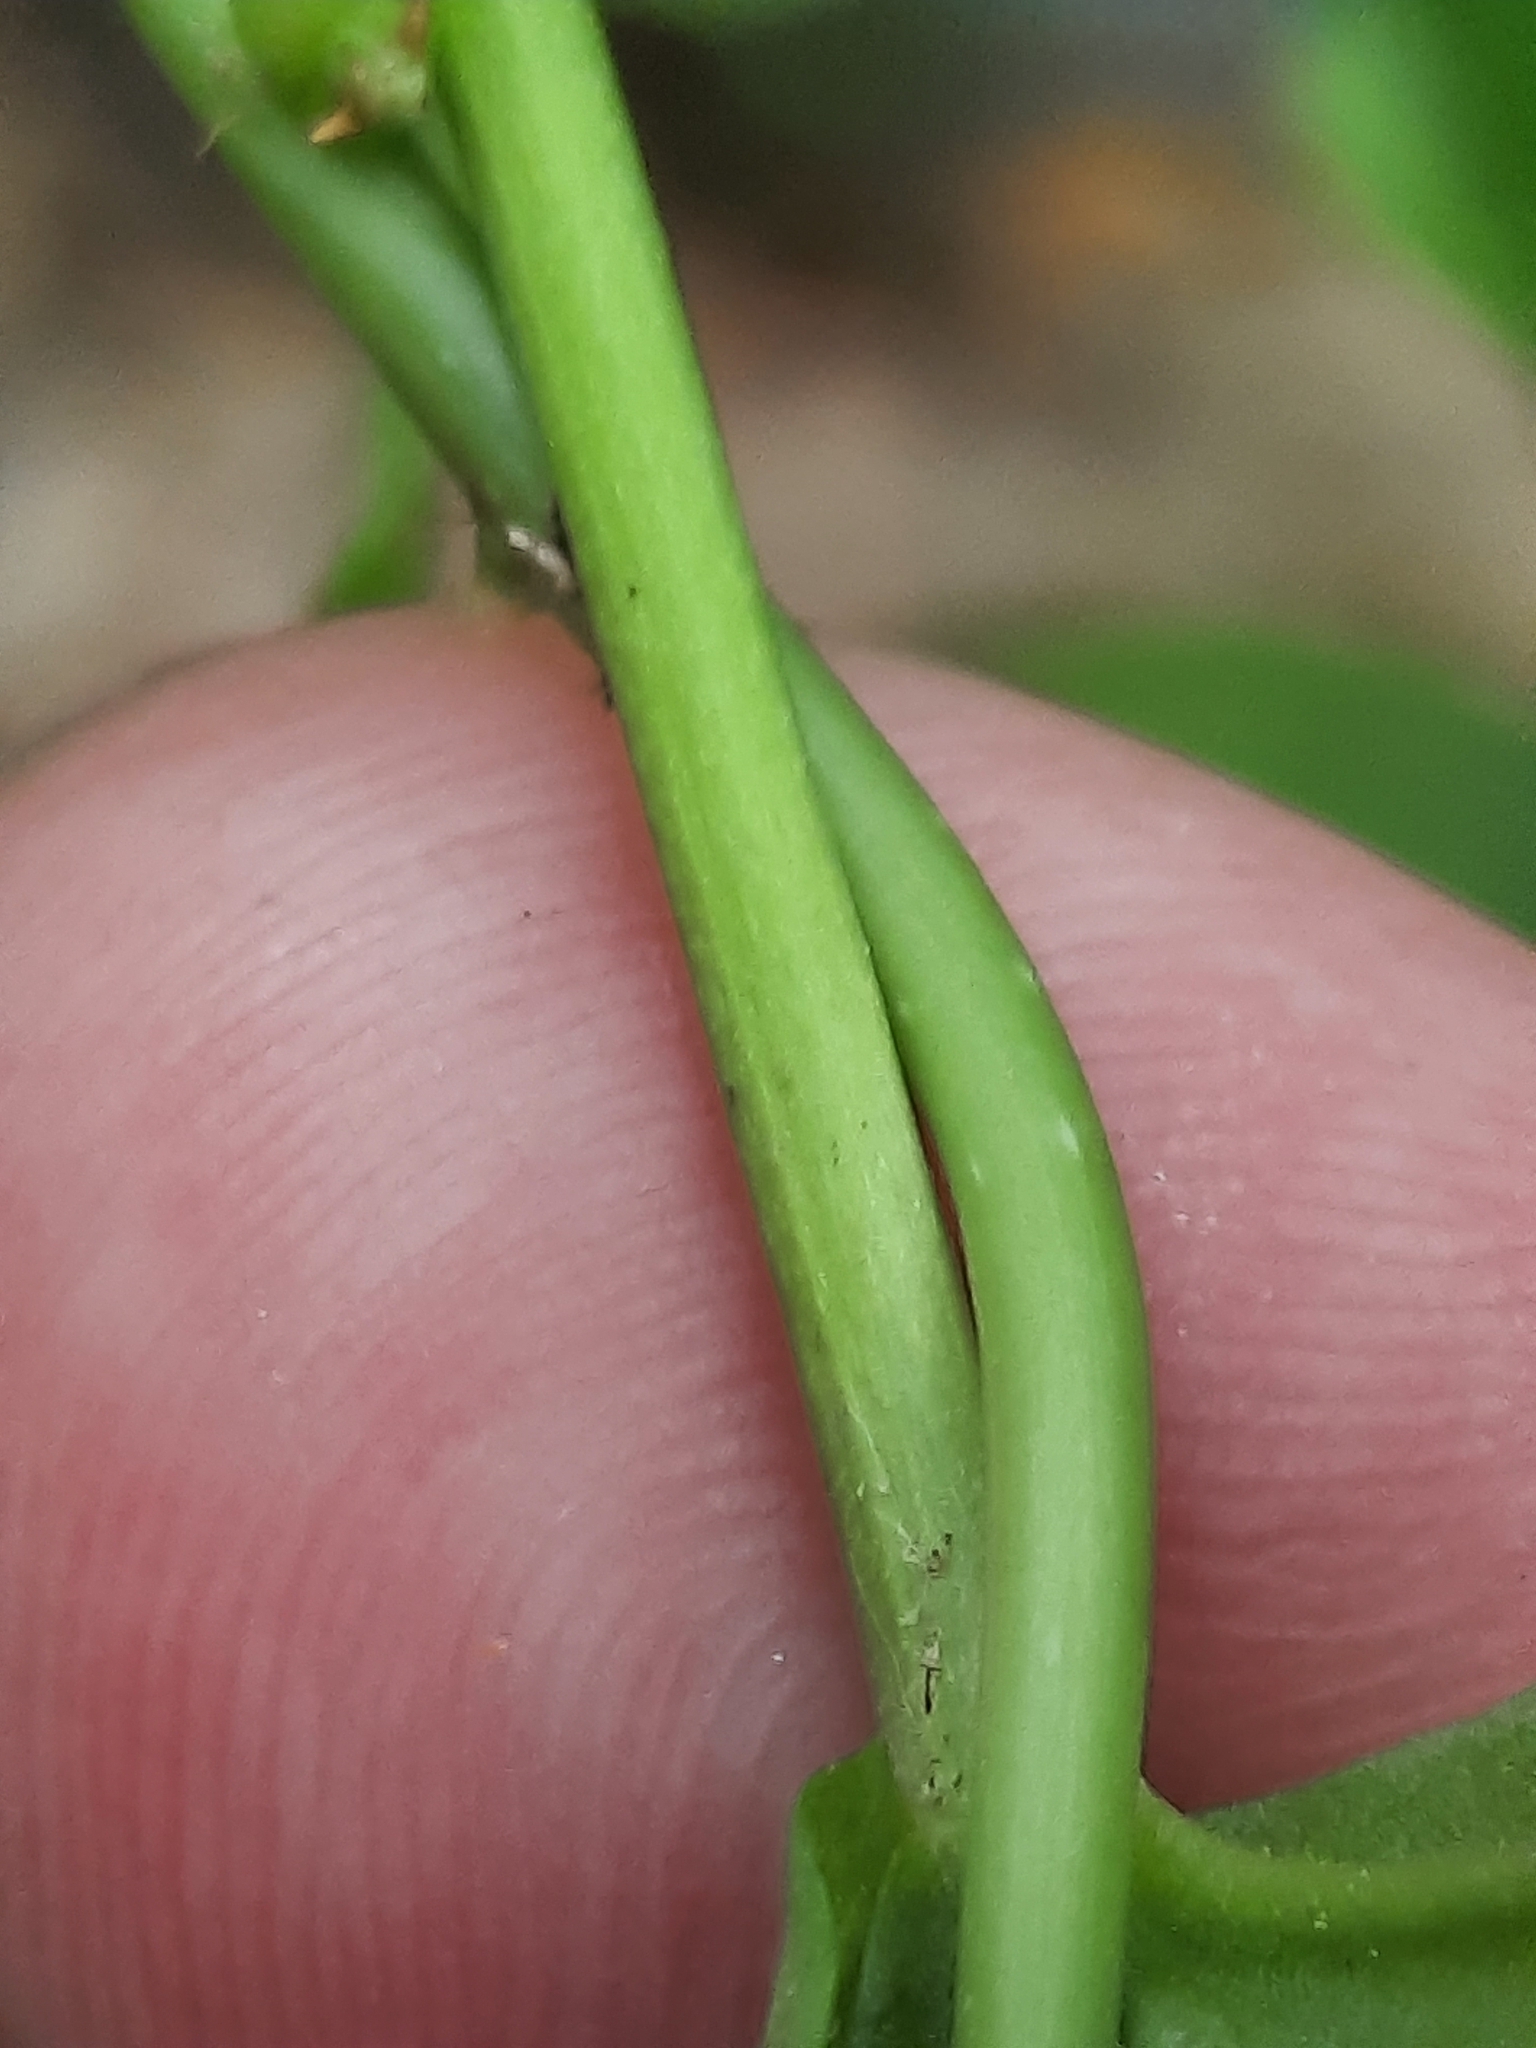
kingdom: Plantae
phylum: Tracheophyta
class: Magnoliopsida
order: Lamiales
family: Plantaginaceae
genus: Penstemon
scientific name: Penstemon digitalis
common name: Foxglove beardtongue
